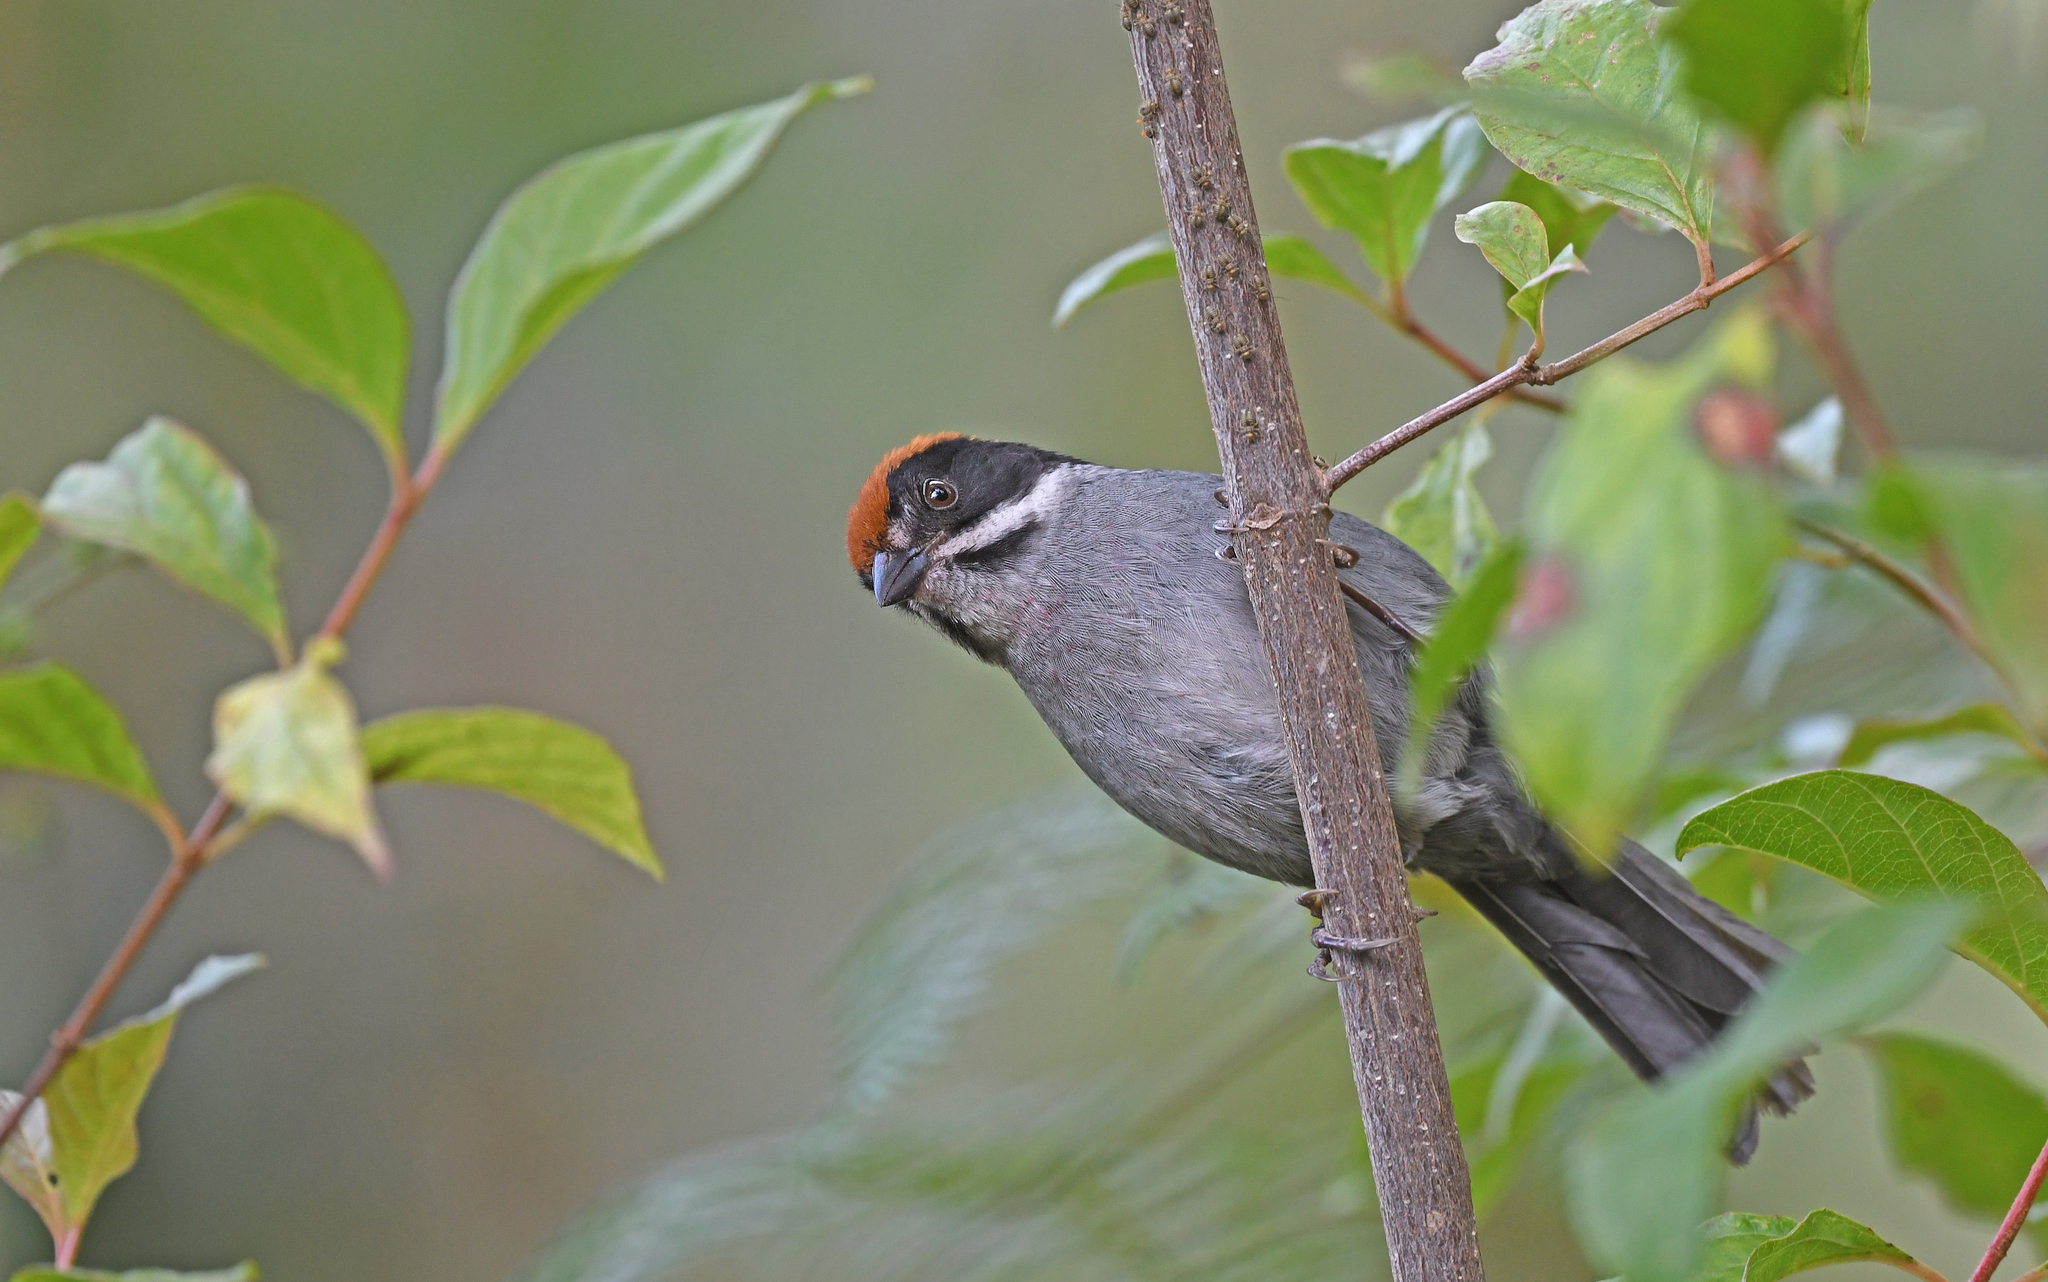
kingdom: Animalia
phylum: Chordata
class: Aves
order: Passeriformes
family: Passerellidae
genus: Atlapetes
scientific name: Atlapetes schistaceus
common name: Slaty brushfinch
